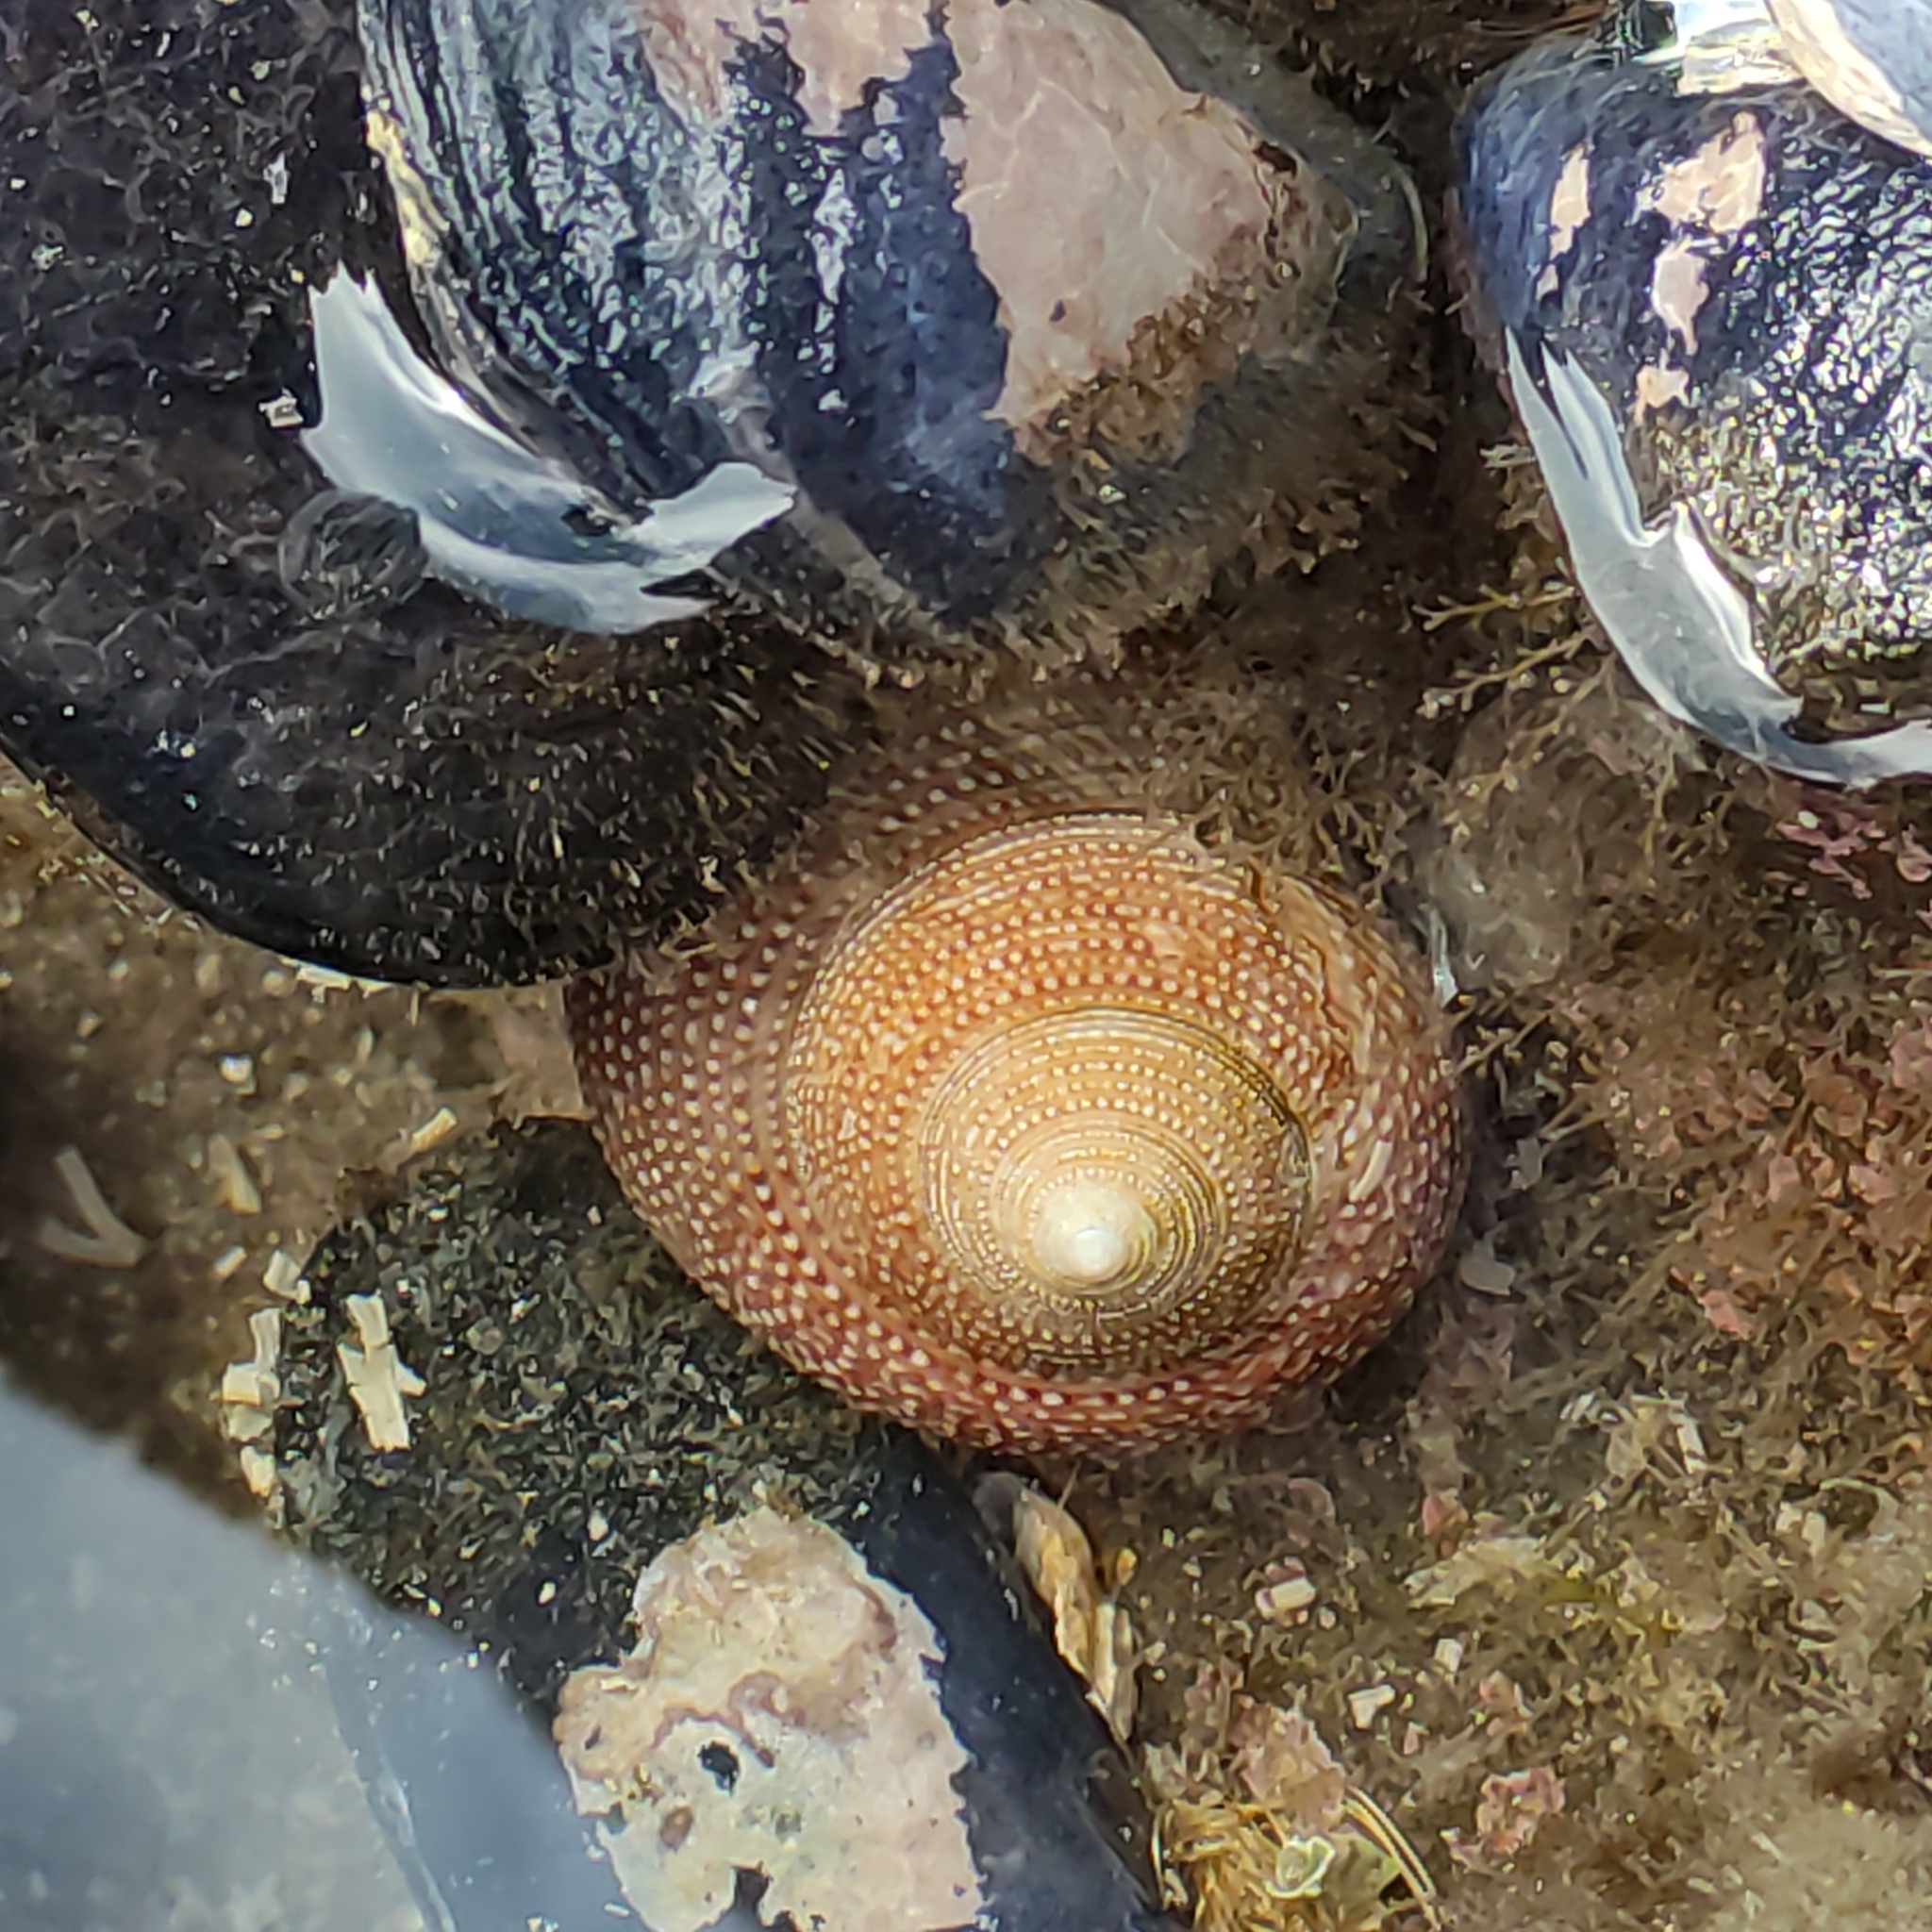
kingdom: Animalia
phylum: Mollusca
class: Gastropoda
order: Trochida
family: Calliostomatidae
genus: Maurea
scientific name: Maurea punctulata
